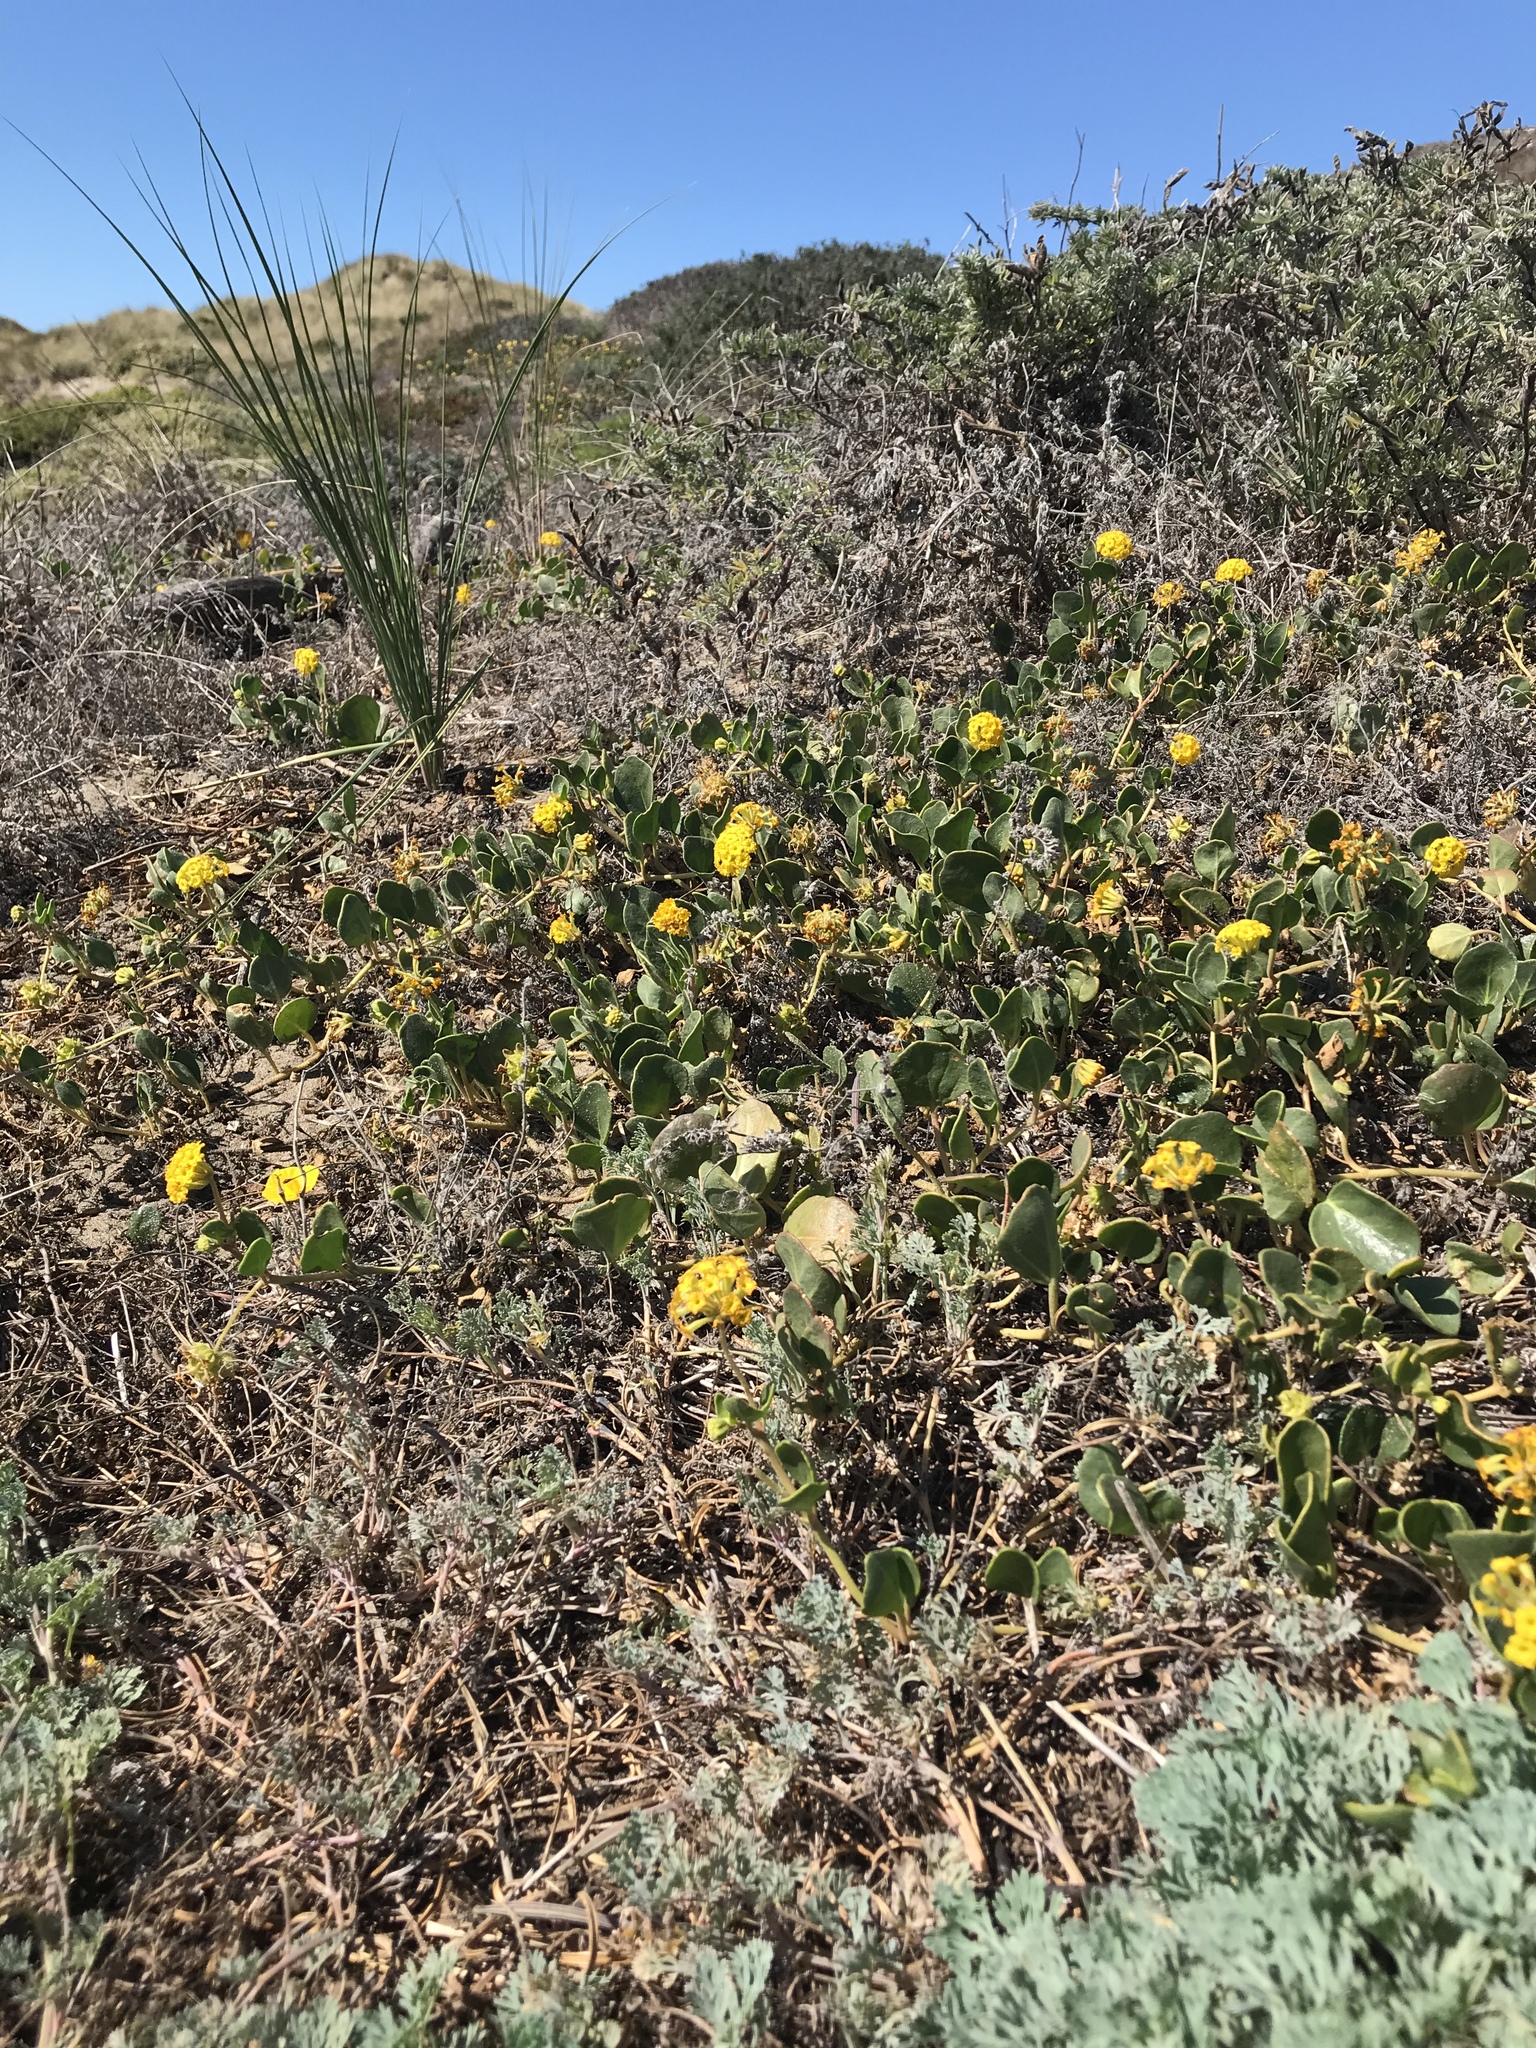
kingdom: Plantae
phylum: Tracheophyta
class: Magnoliopsida
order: Caryophyllales
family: Nyctaginaceae
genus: Abronia
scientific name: Abronia latifolia
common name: Yellow sand-verbena
